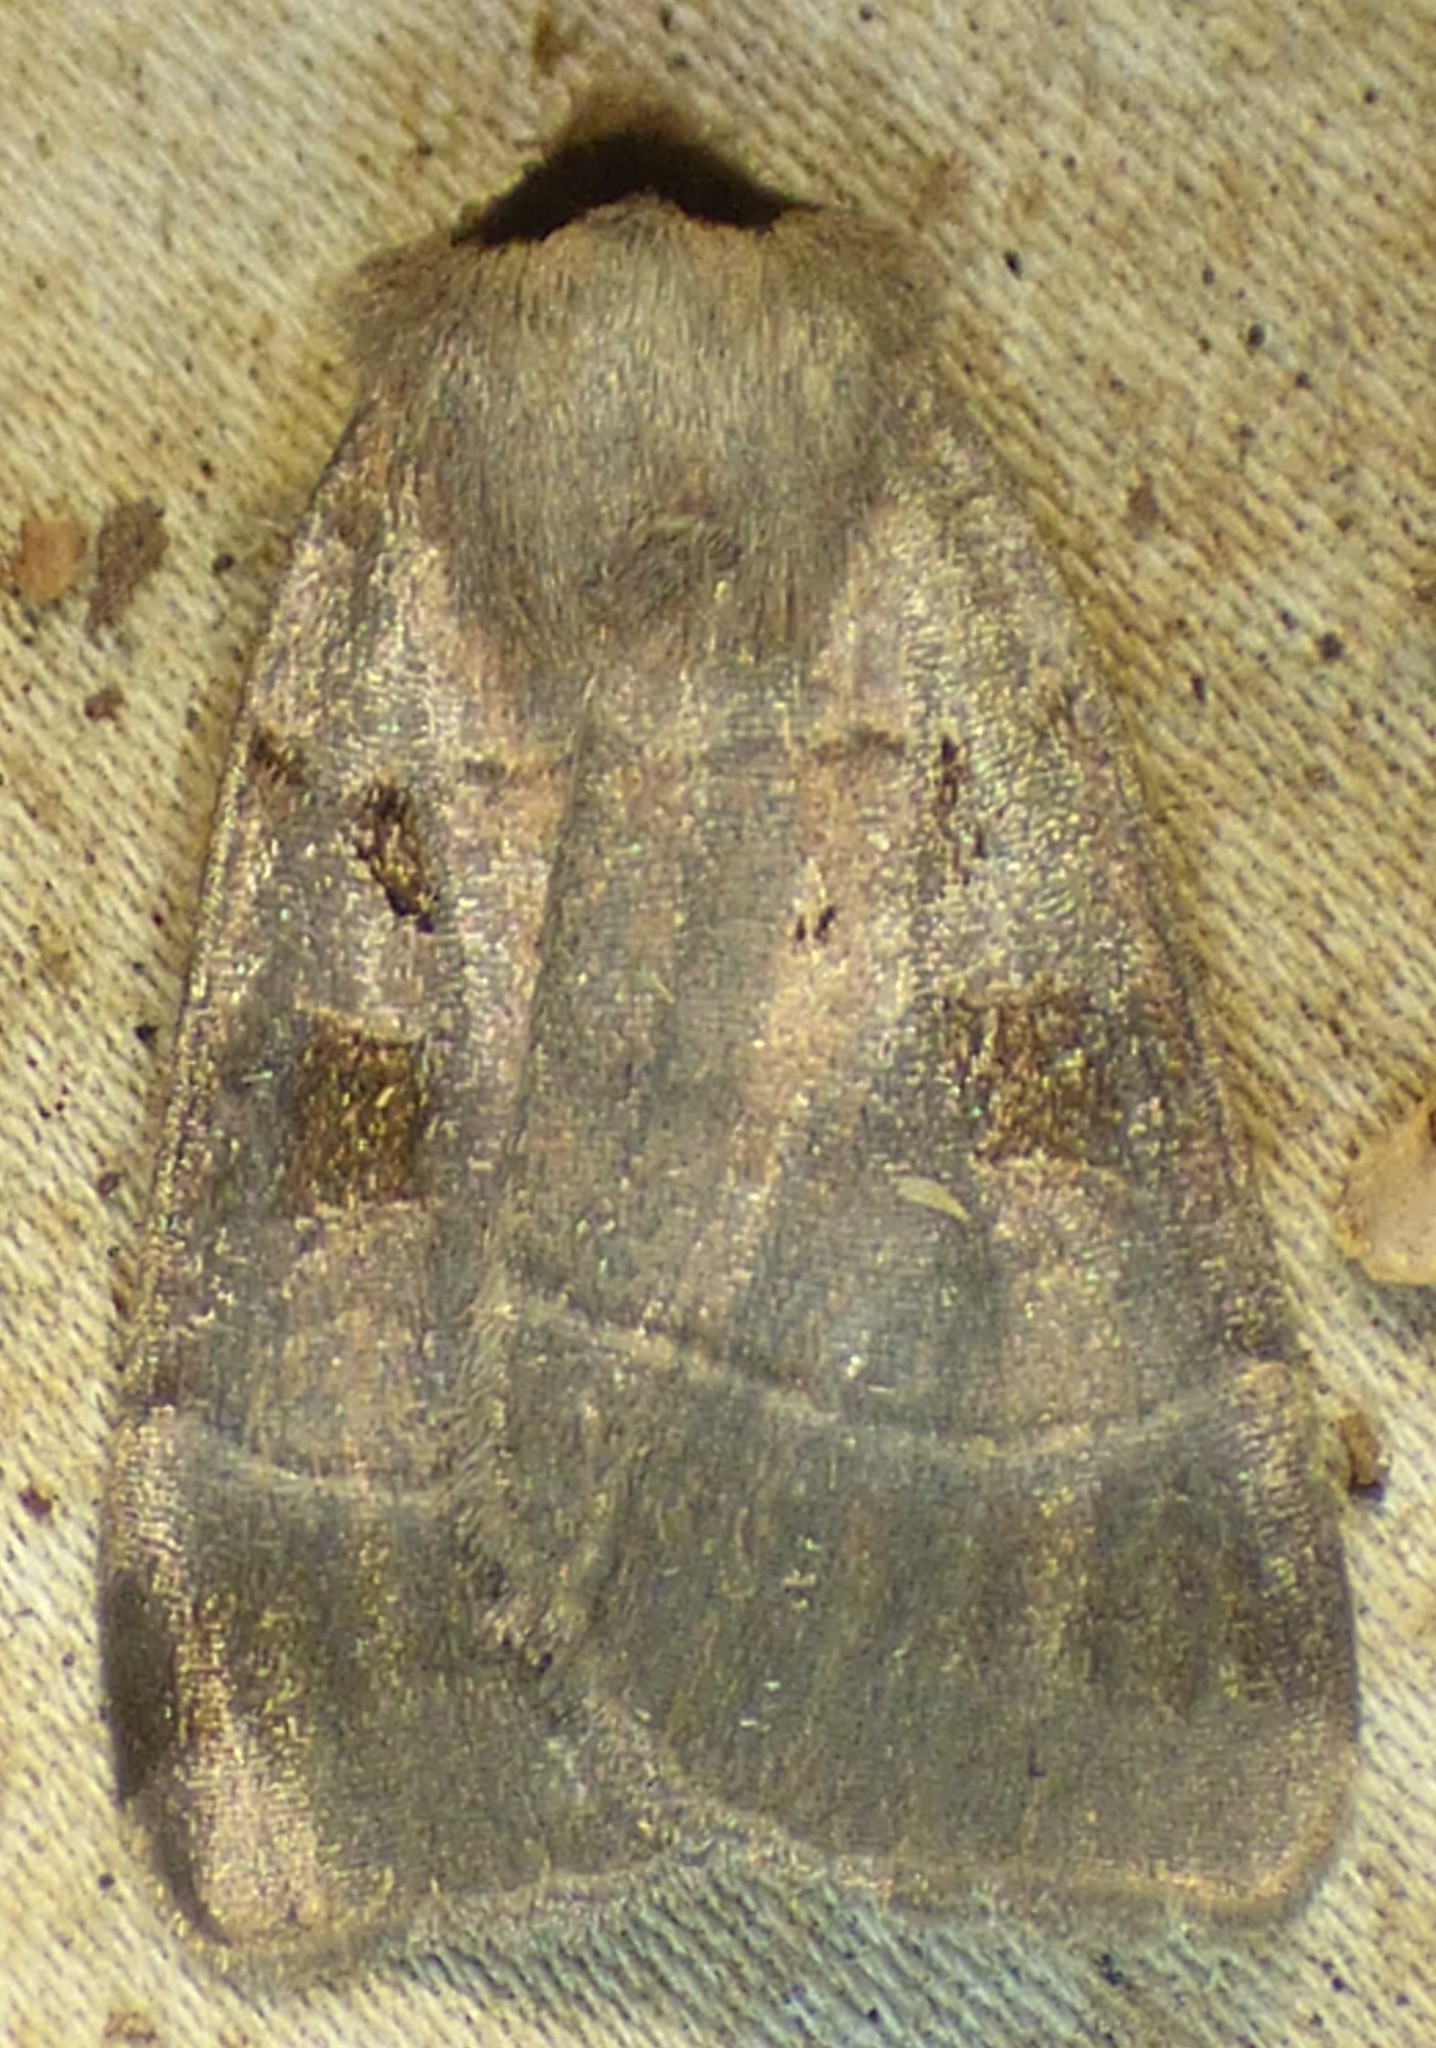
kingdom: Animalia
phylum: Arthropoda
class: Insecta
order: Lepidoptera
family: Noctuidae
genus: Agnorisma
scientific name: Agnorisma badinodis
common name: Pale-banded dart
